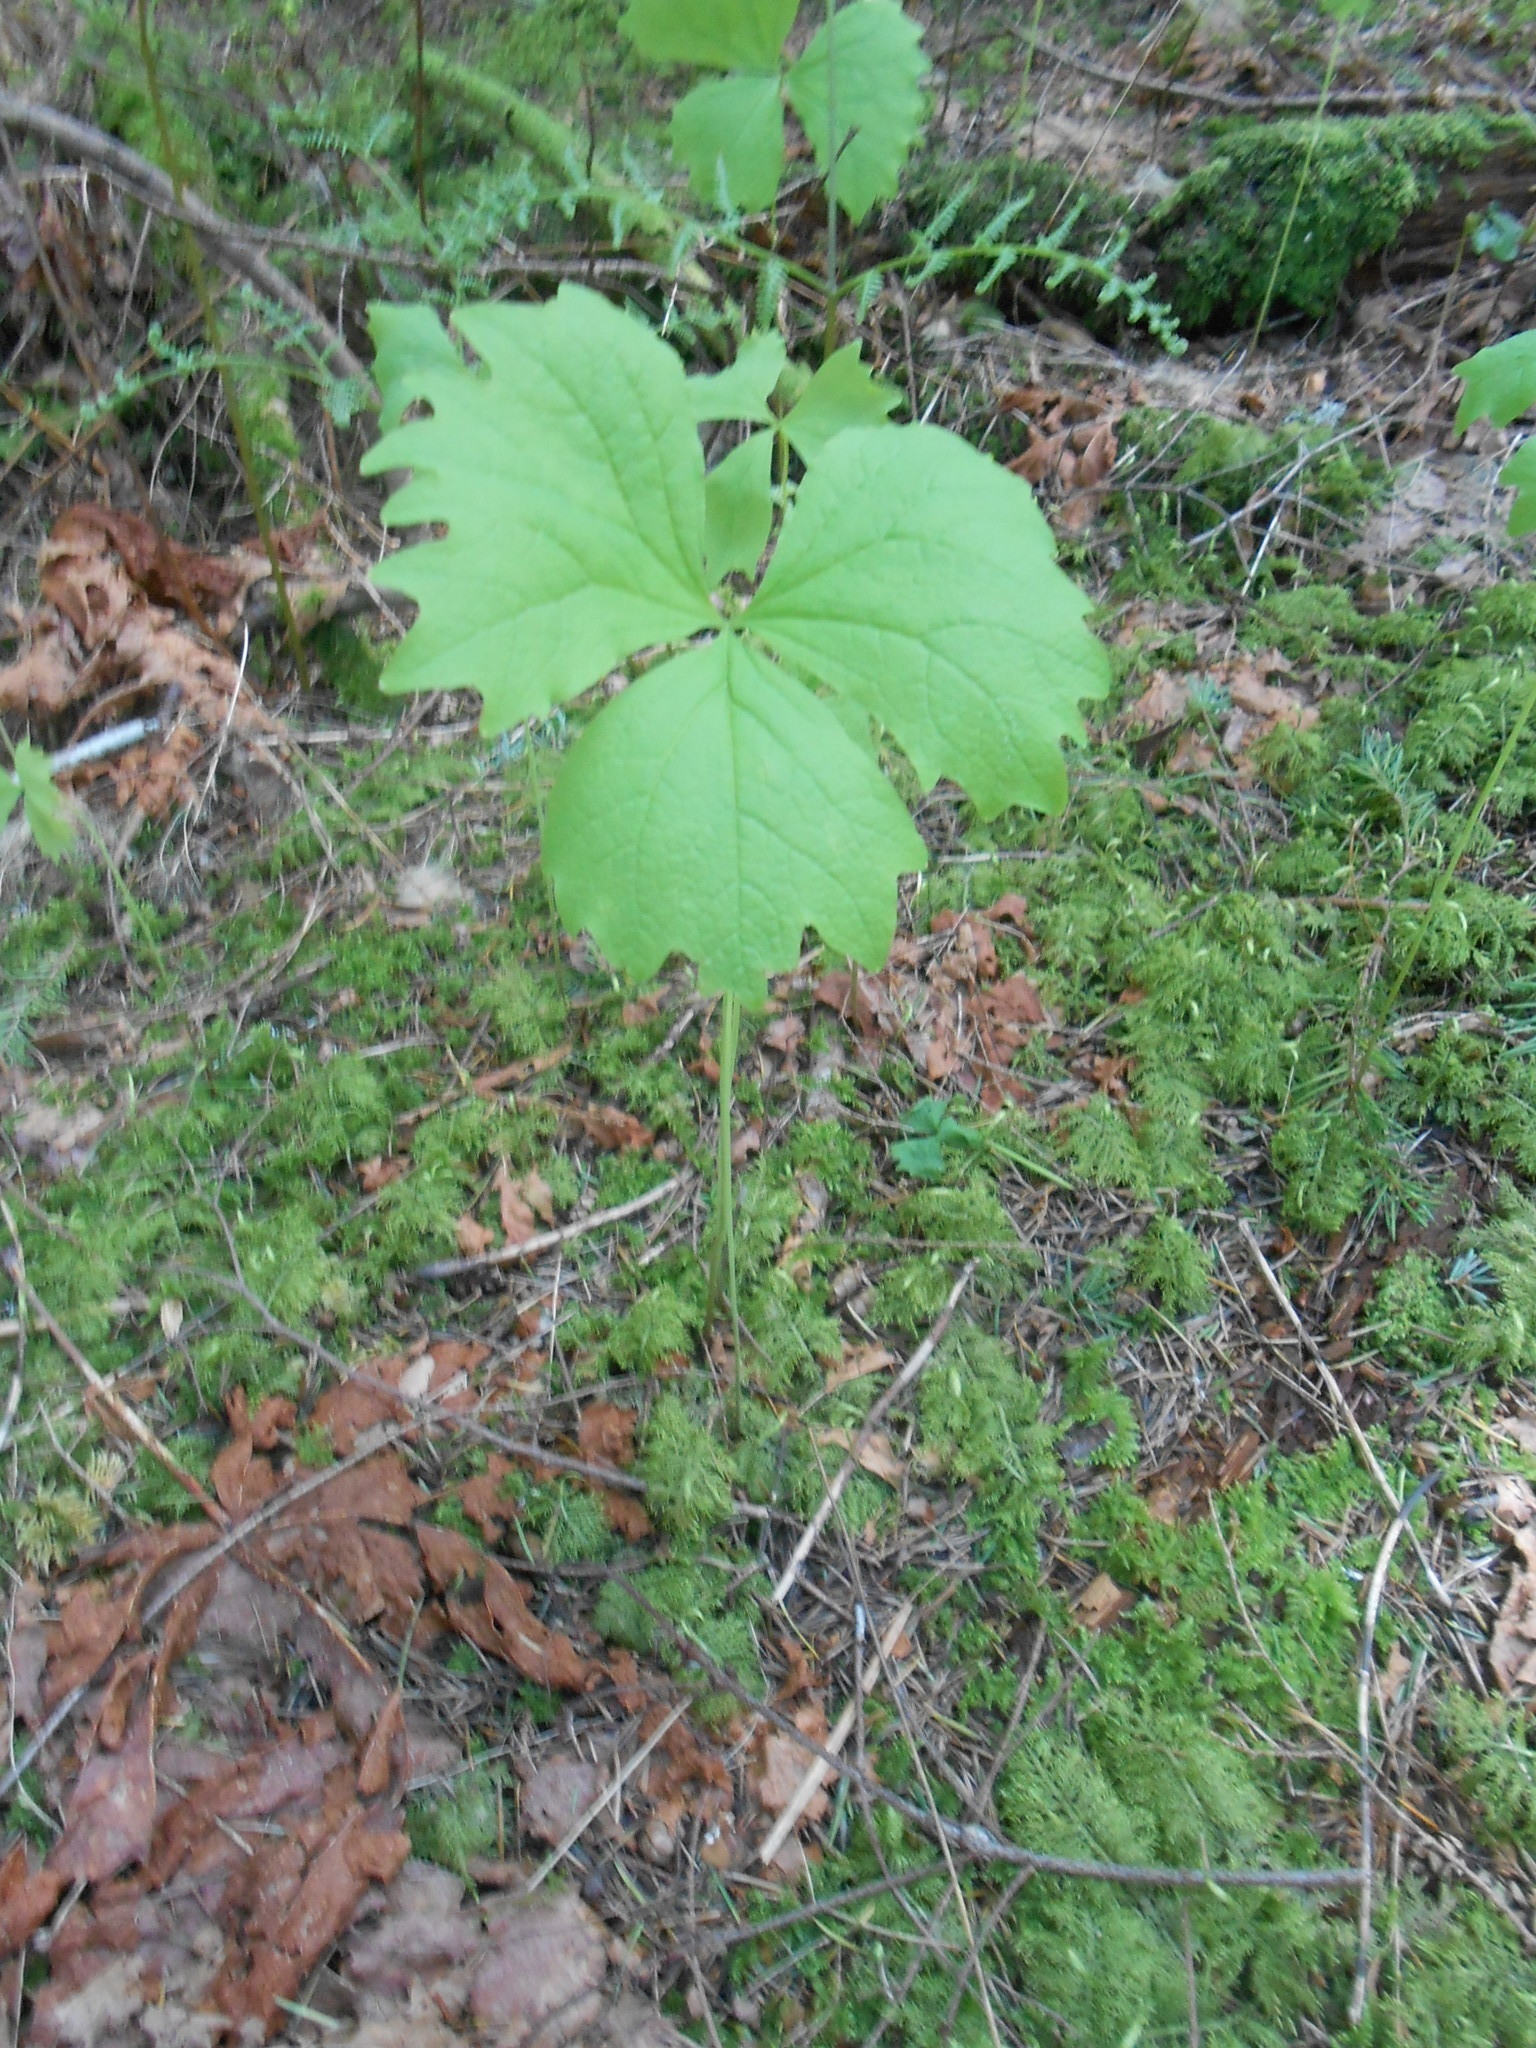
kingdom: Plantae
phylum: Tracheophyta
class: Magnoliopsida
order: Ranunculales
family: Berberidaceae
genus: Achlys
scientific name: Achlys triphylla
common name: Vanilla-leaf
